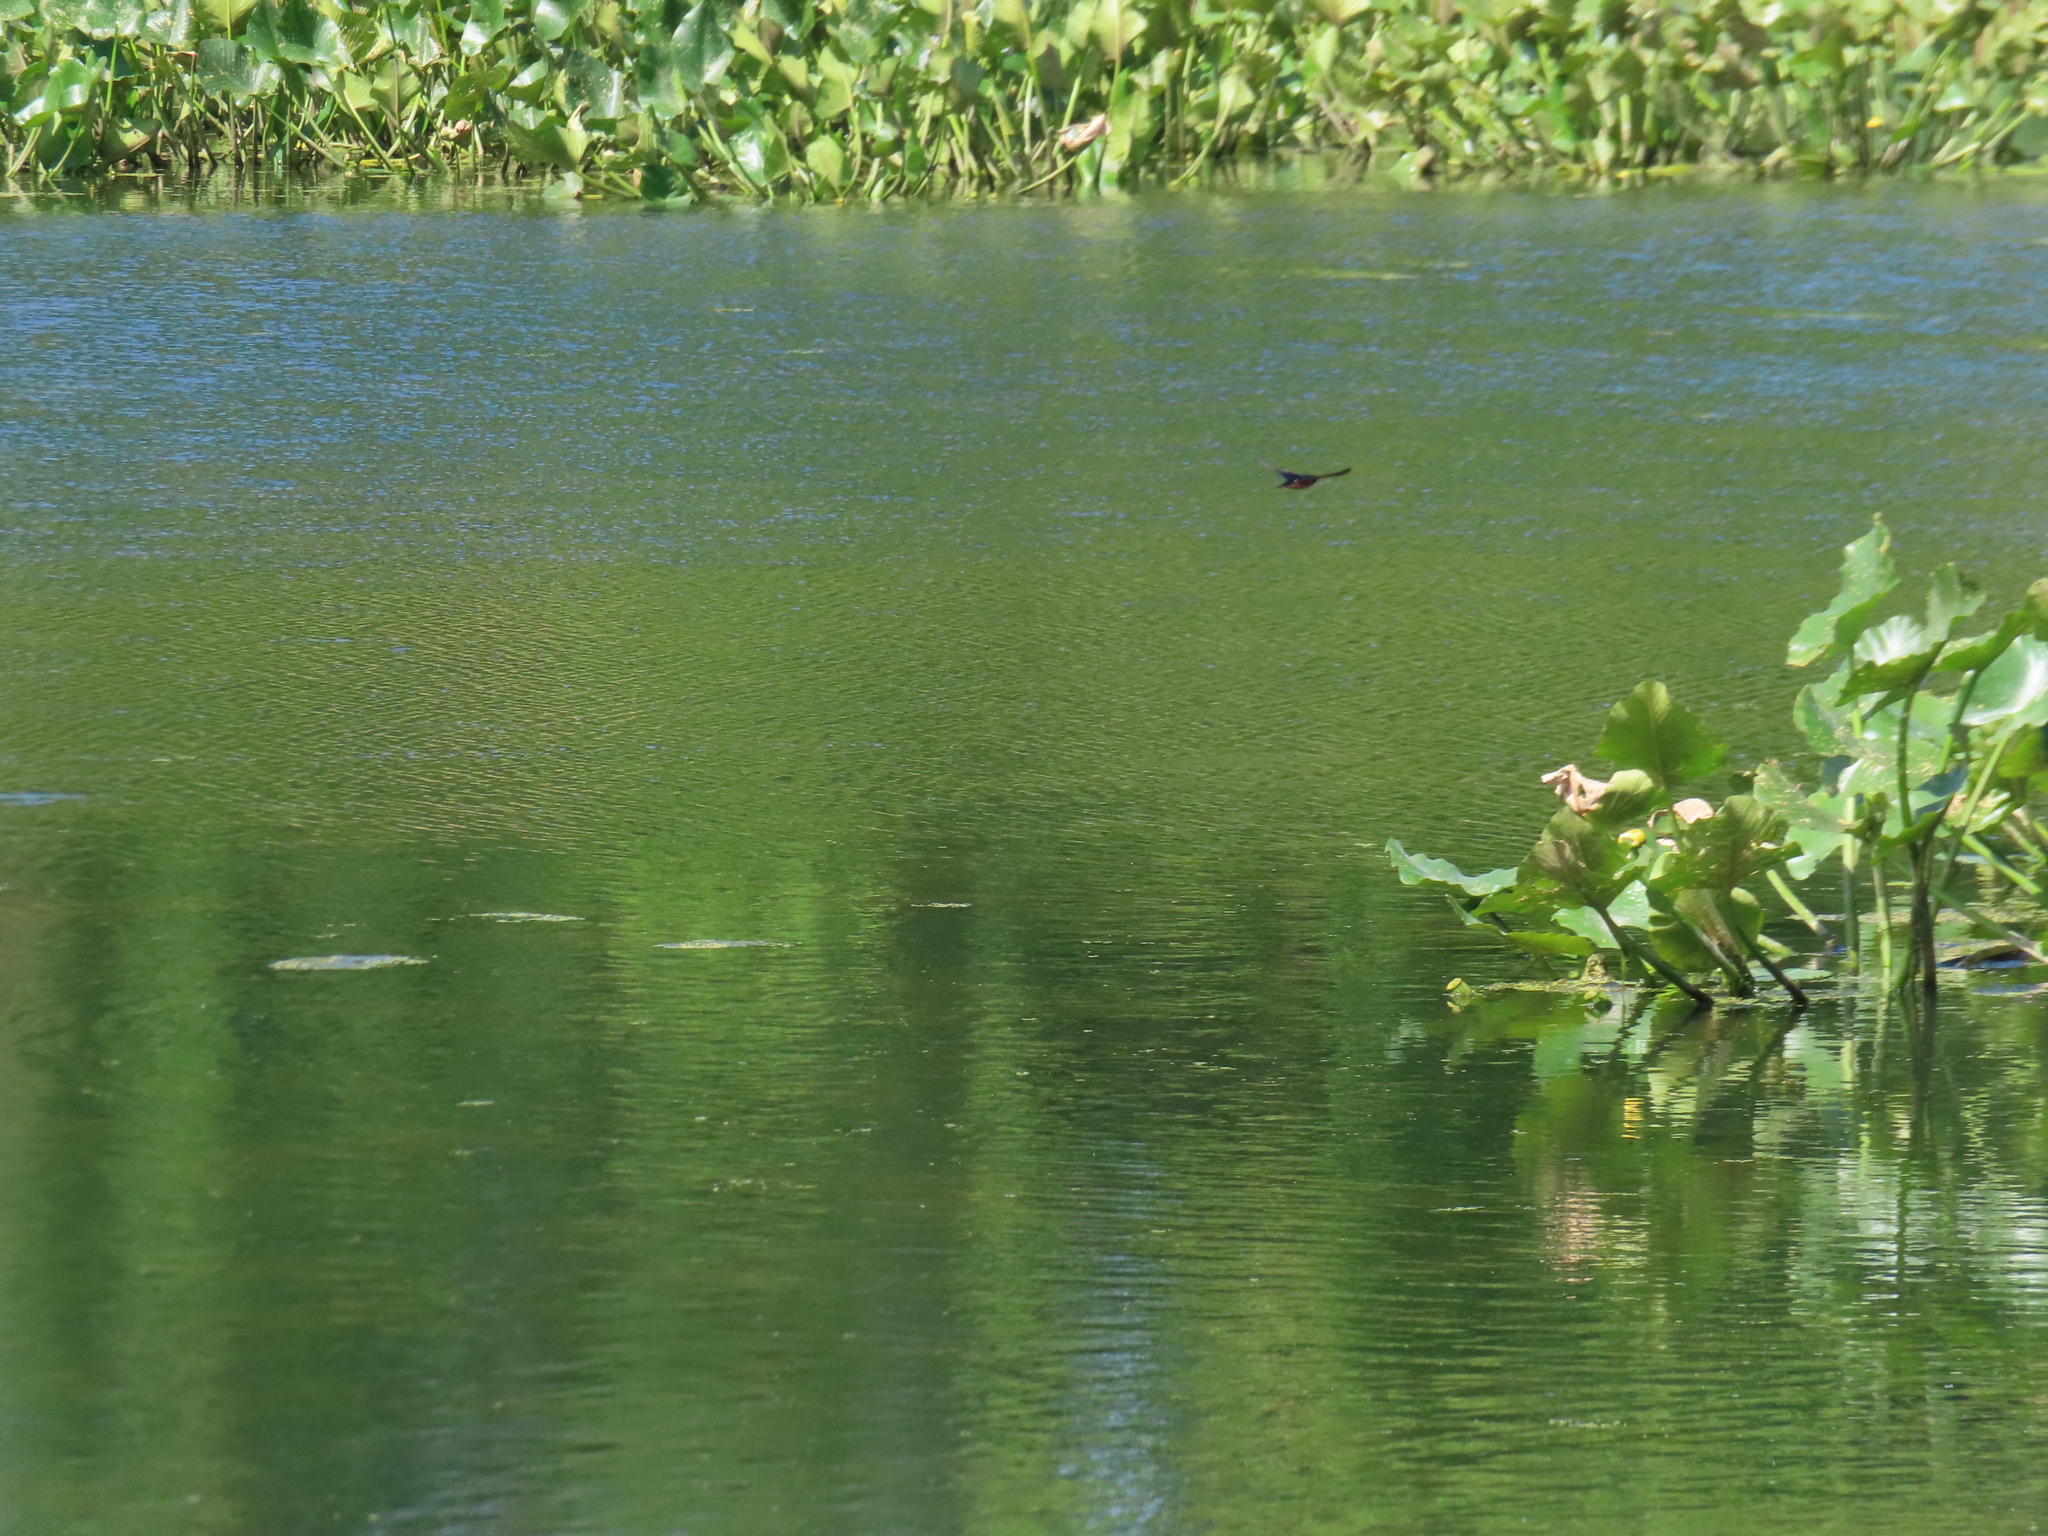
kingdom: Animalia
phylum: Chordata
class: Aves
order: Passeriformes
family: Hirundinidae
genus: Hirundo
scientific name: Hirundo rustica
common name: Barn swallow
